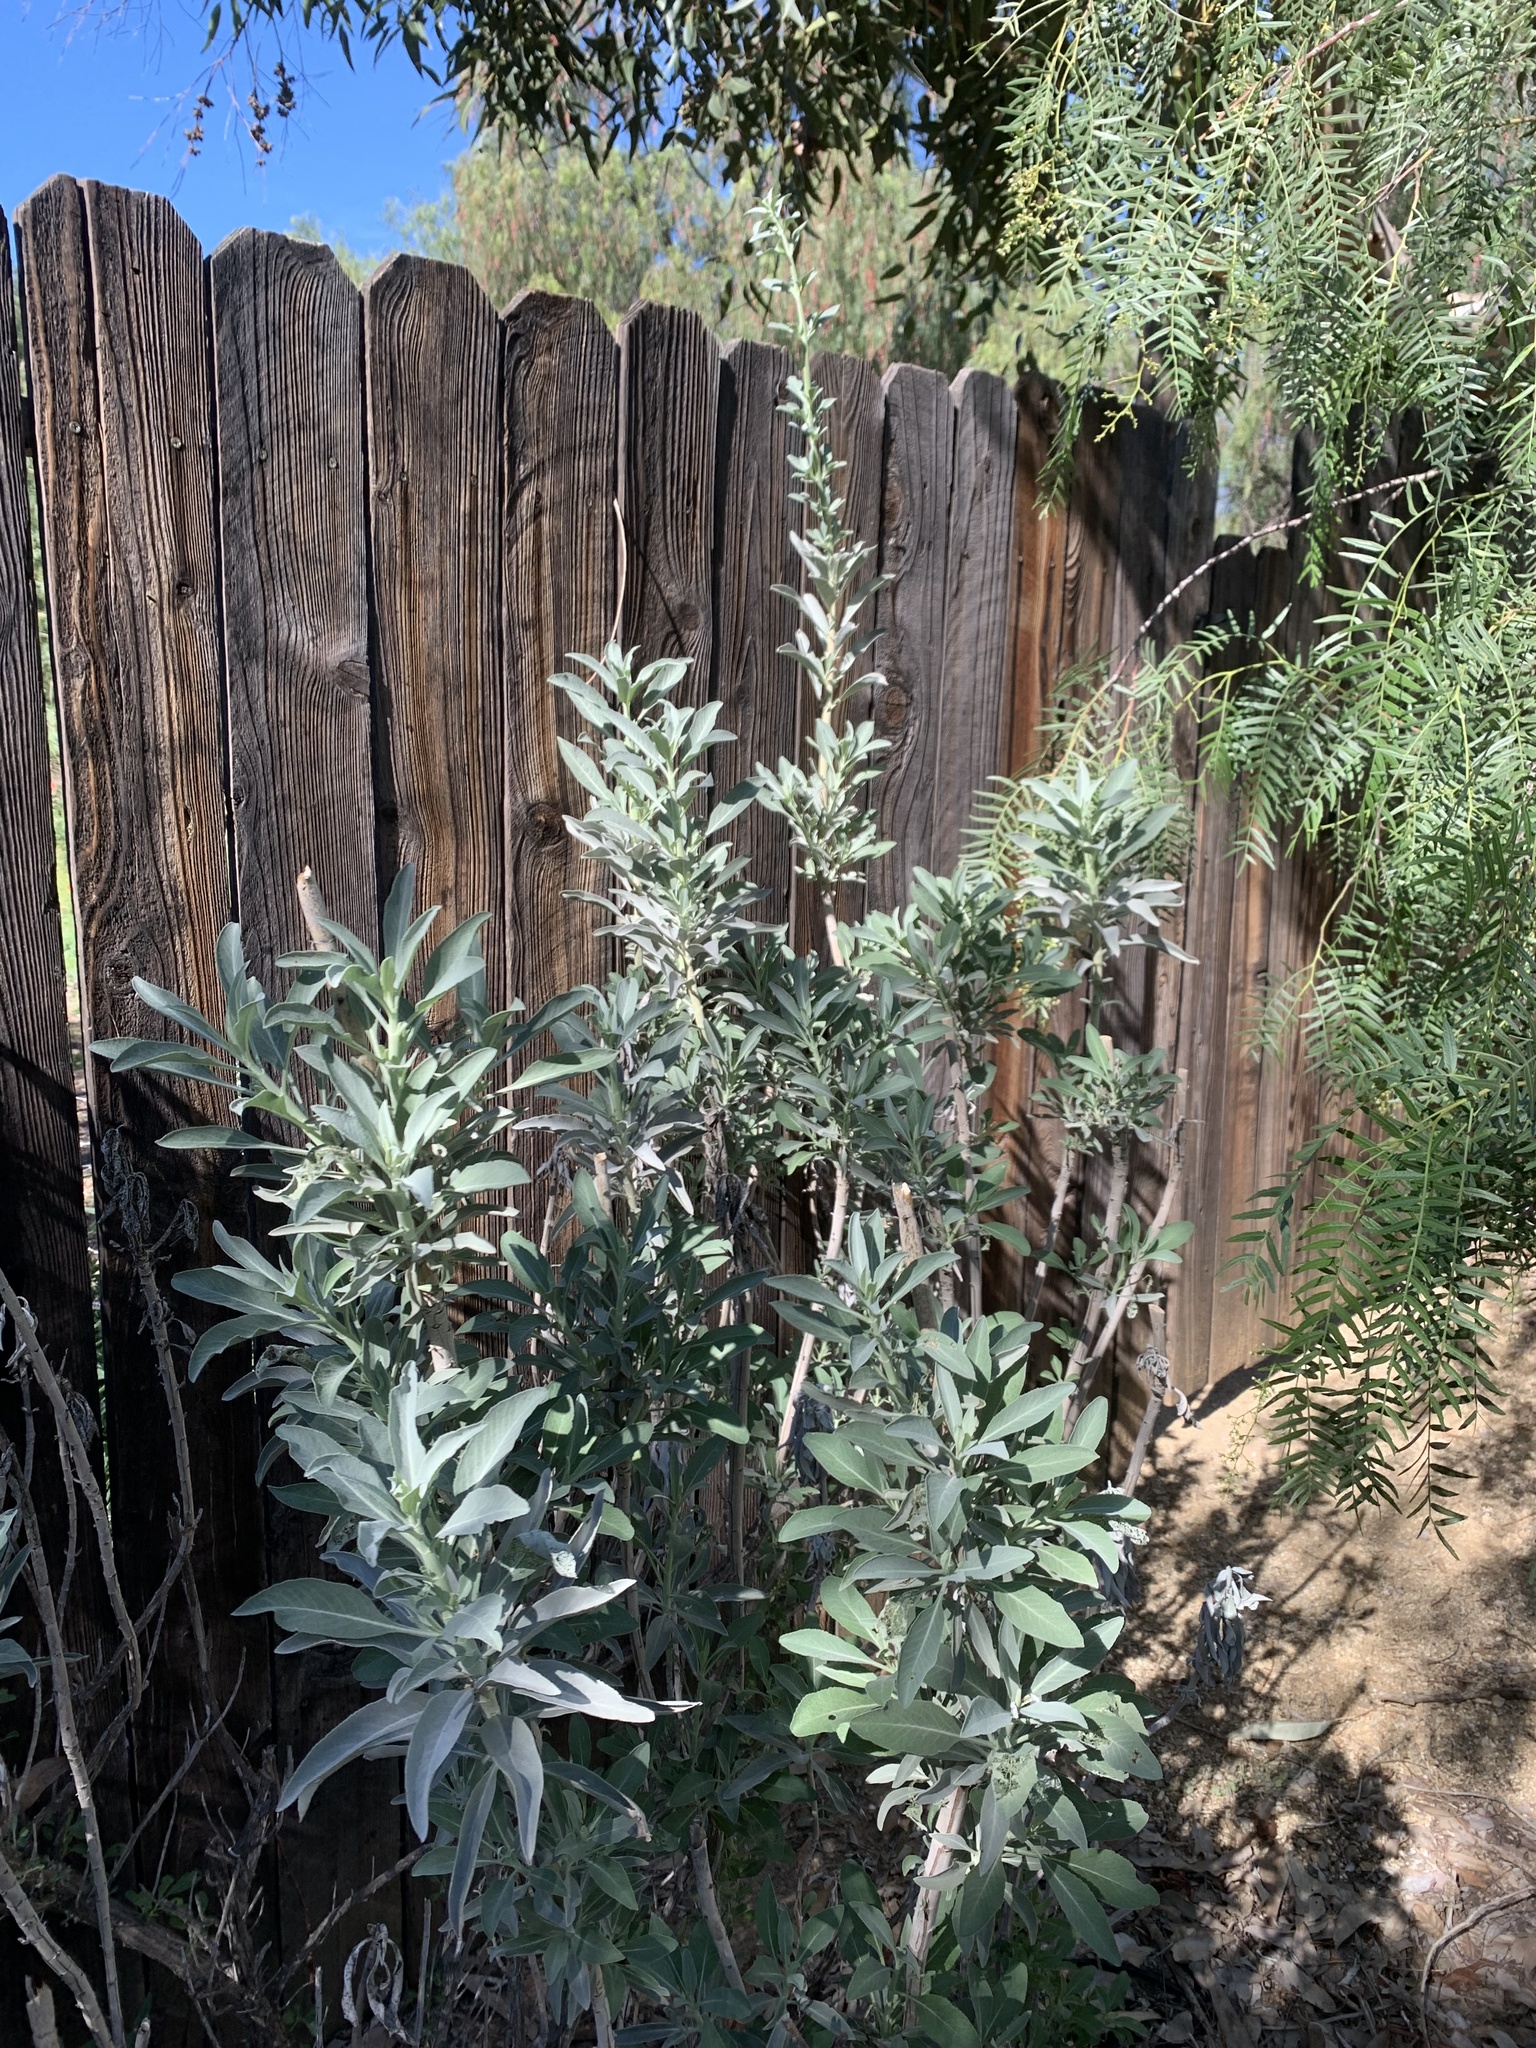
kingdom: Plantae
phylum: Tracheophyta
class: Magnoliopsida
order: Lamiales
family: Lamiaceae
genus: Salvia
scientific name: Salvia apiana
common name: White sage
